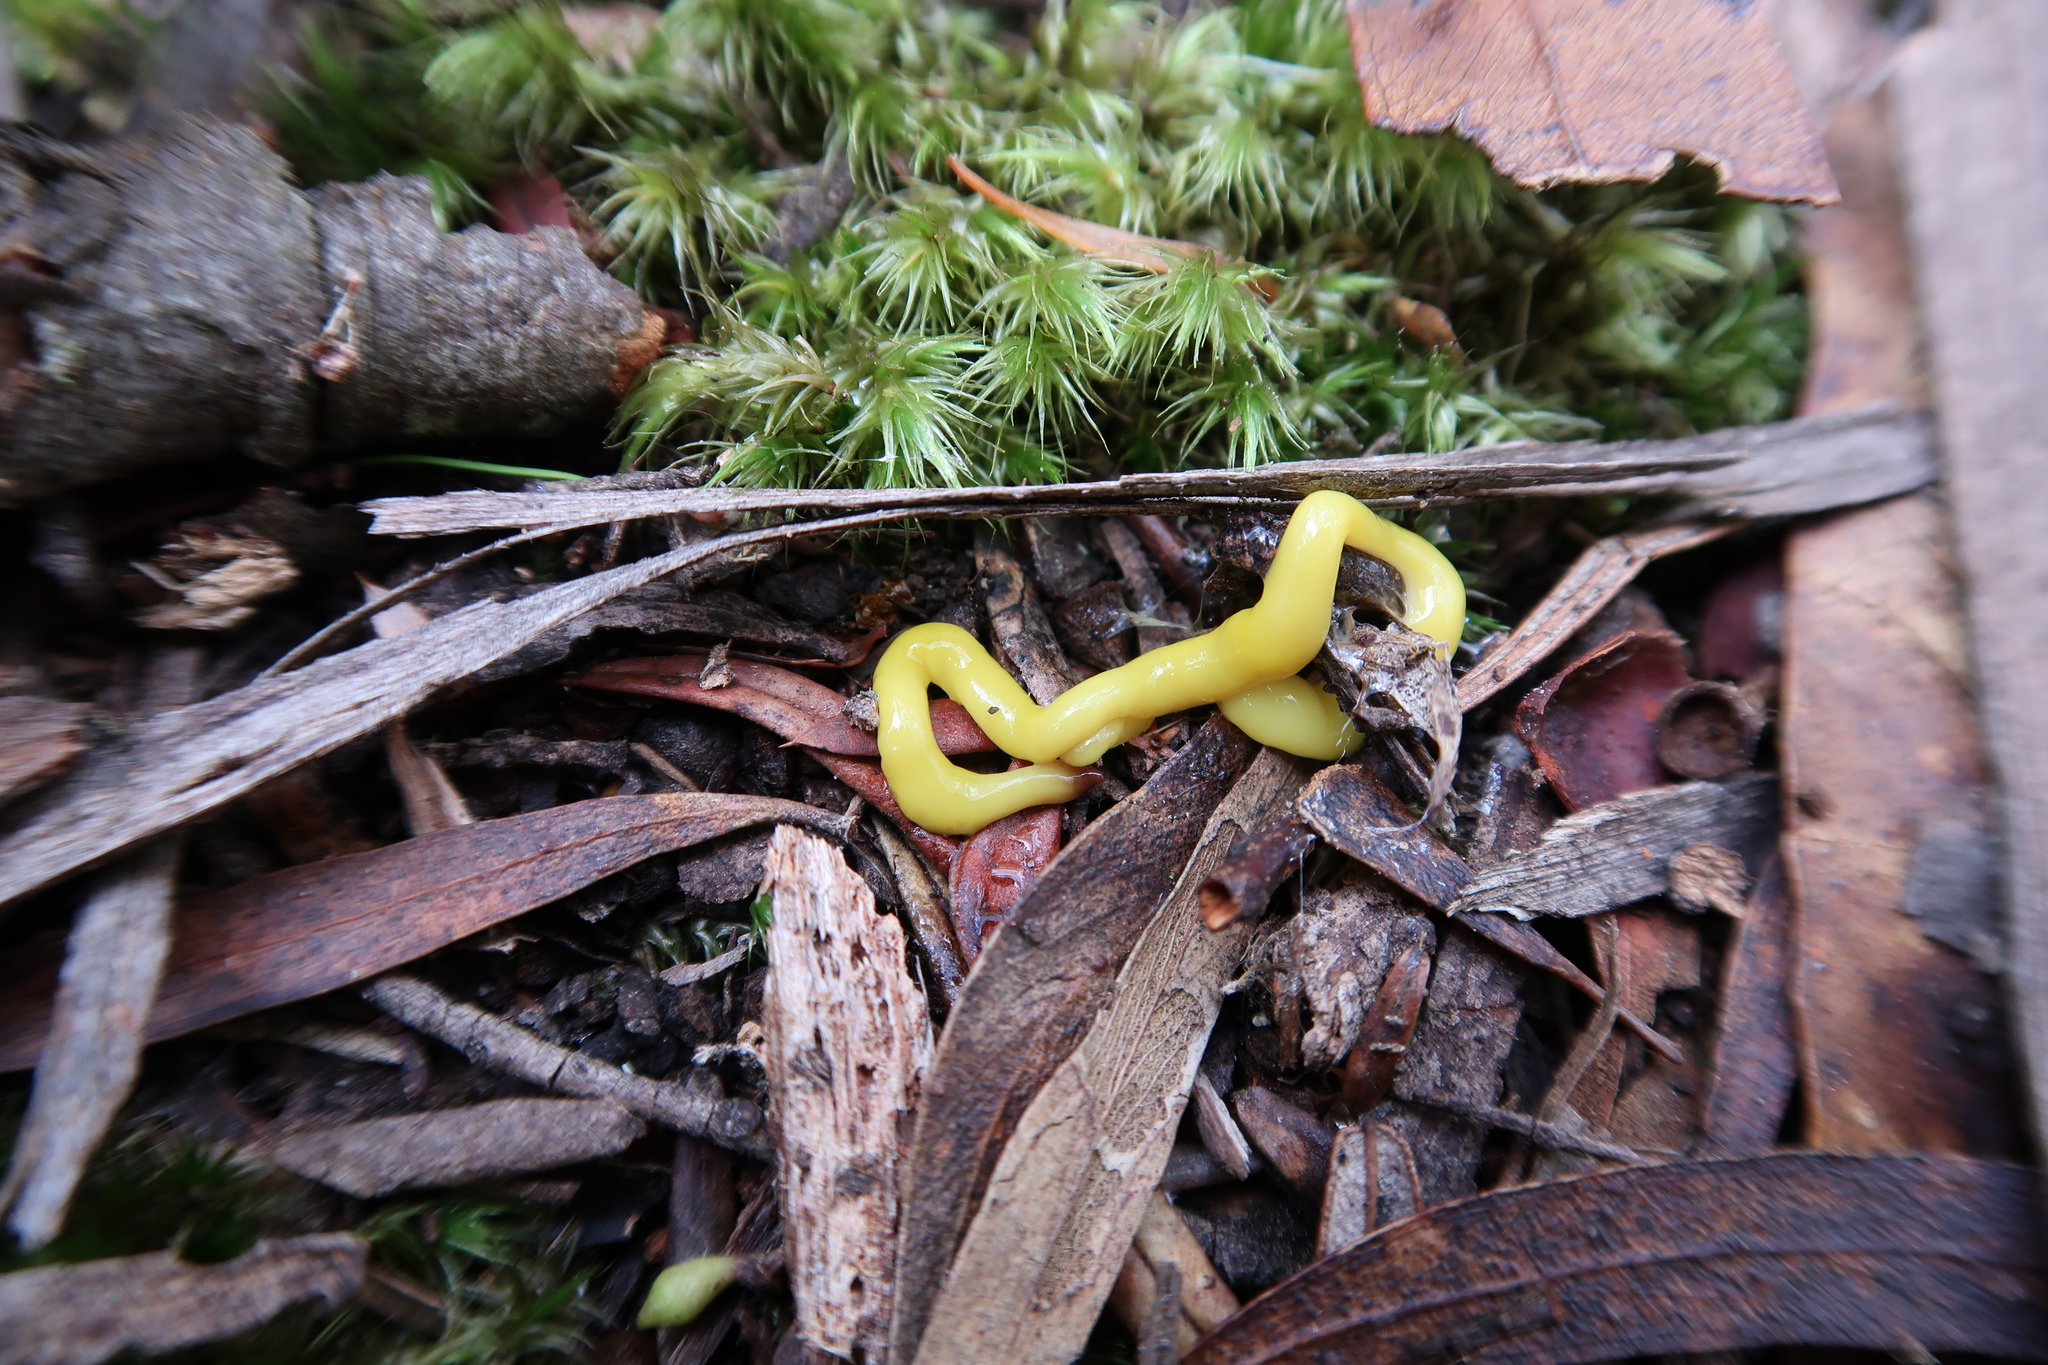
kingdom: Animalia
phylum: Platyhelminthes
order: Tricladida
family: Geoplanidae
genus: Fletchamia
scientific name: Fletchamia sugdeni
